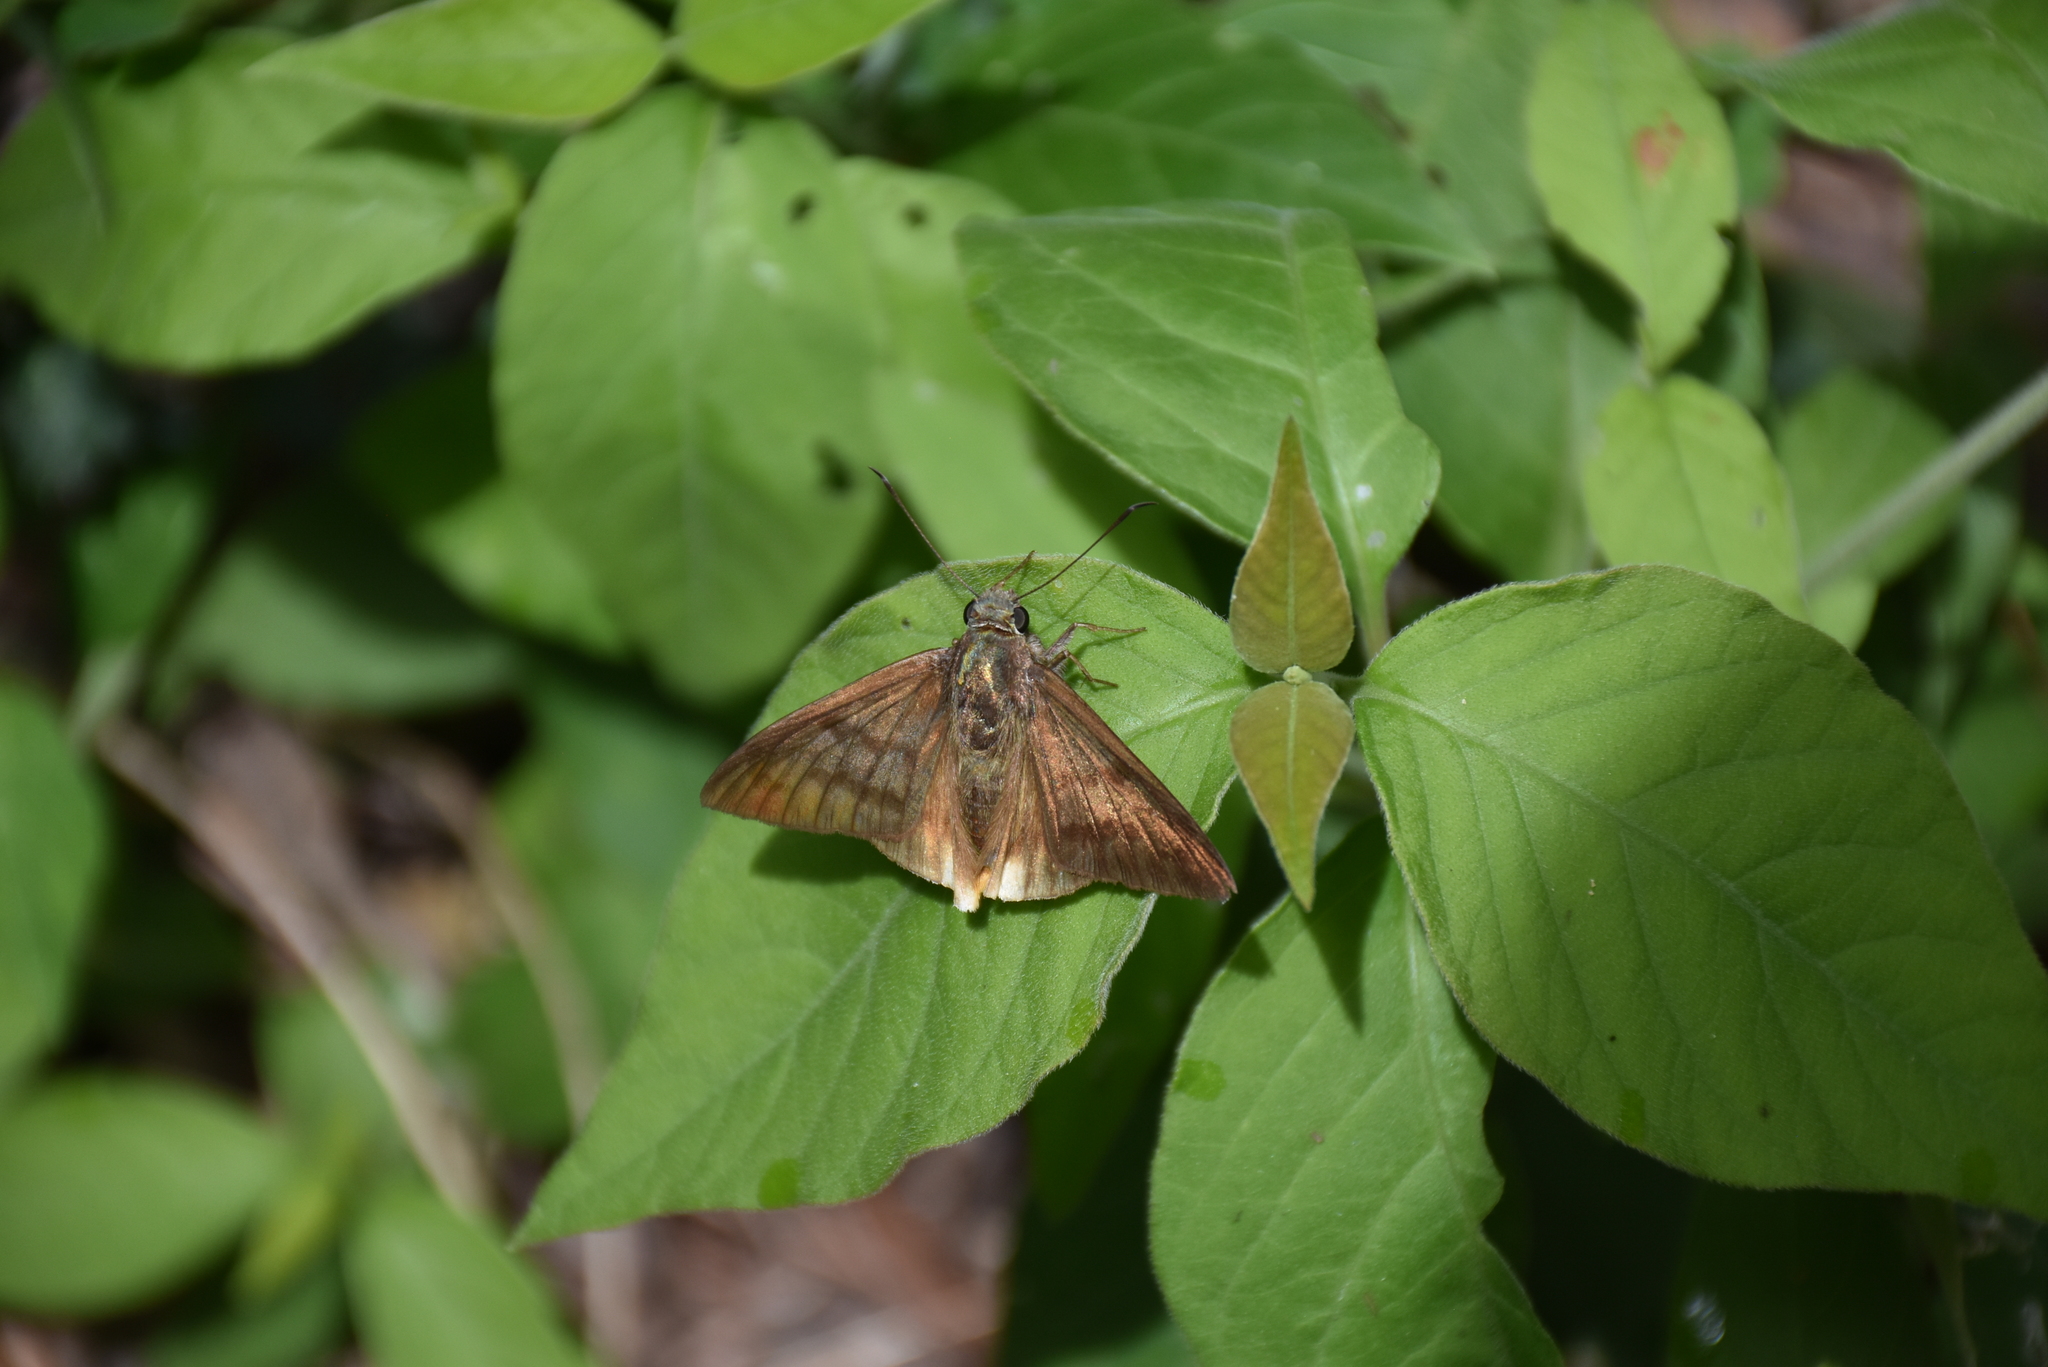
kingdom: Animalia
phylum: Arthropoda
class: Insecta
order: Lepidoptera
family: Hesperiidae
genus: Astraptes
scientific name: Astraptes anaphus
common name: Yellow-tipped flasher
